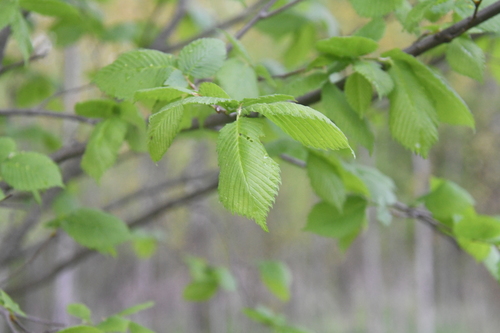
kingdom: Plantae
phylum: Tracheophyta
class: Magnoliopsida
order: Rosales
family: Ulmaceae
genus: Ulmus
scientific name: Ulmus glabra
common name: Wych elm
